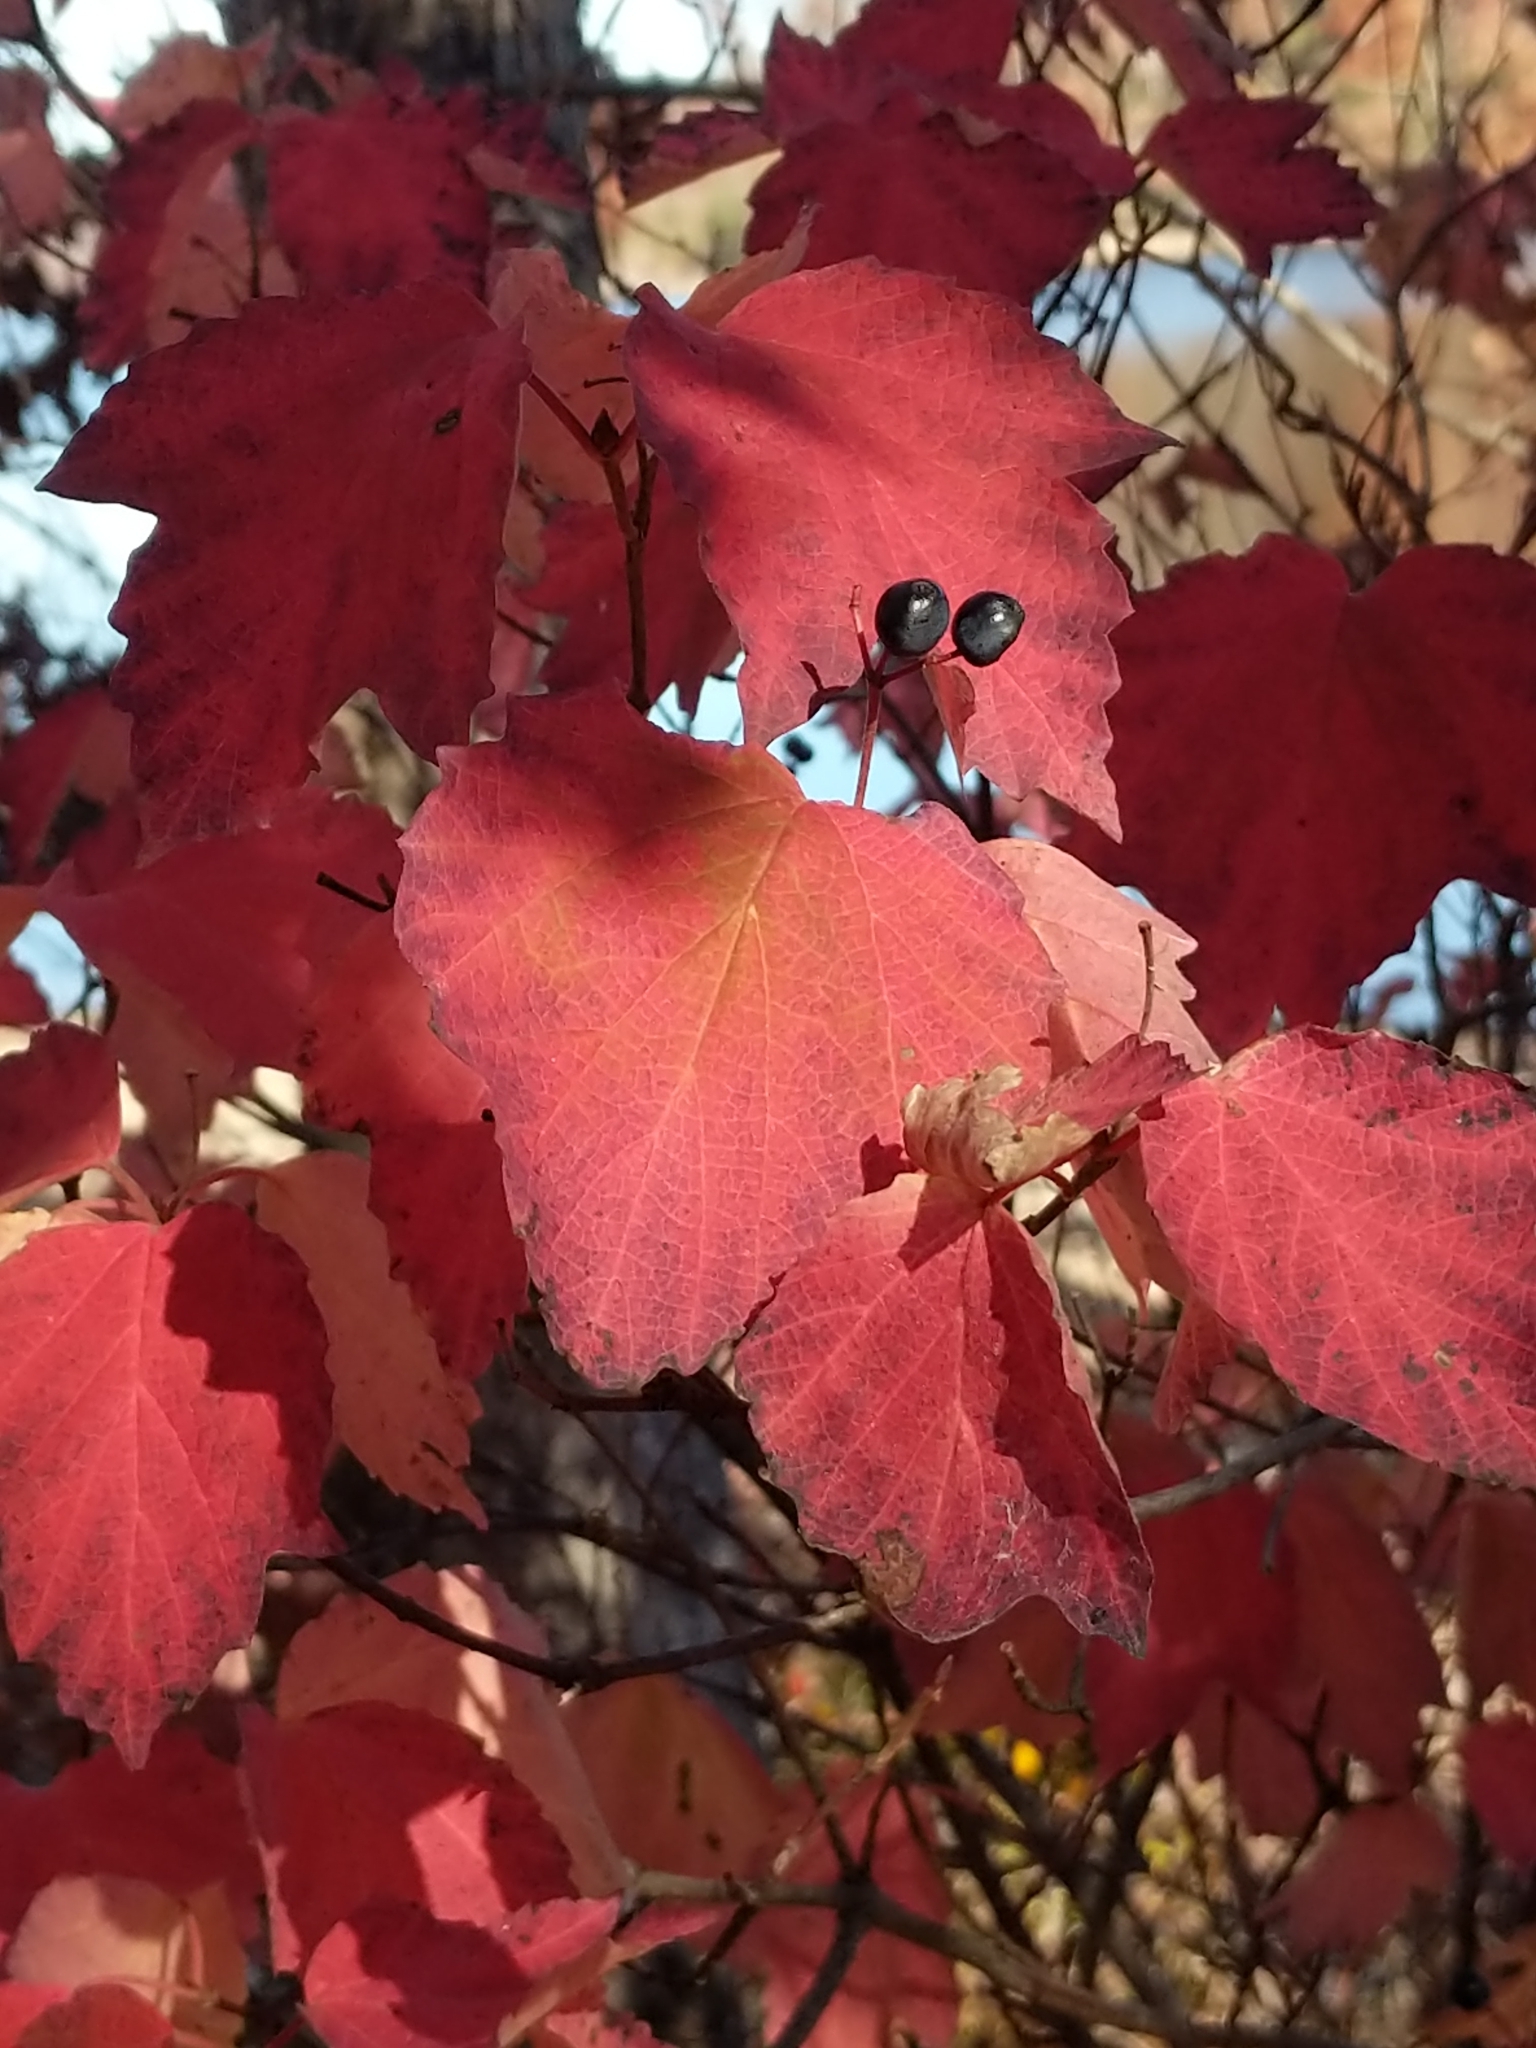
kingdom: Plantae
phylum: Tracheophyta
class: Magnoliopsida
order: Dipsacales
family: Viburnaceae
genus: Viburnum
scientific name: Viburnum acerifolium
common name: Dockmackie
